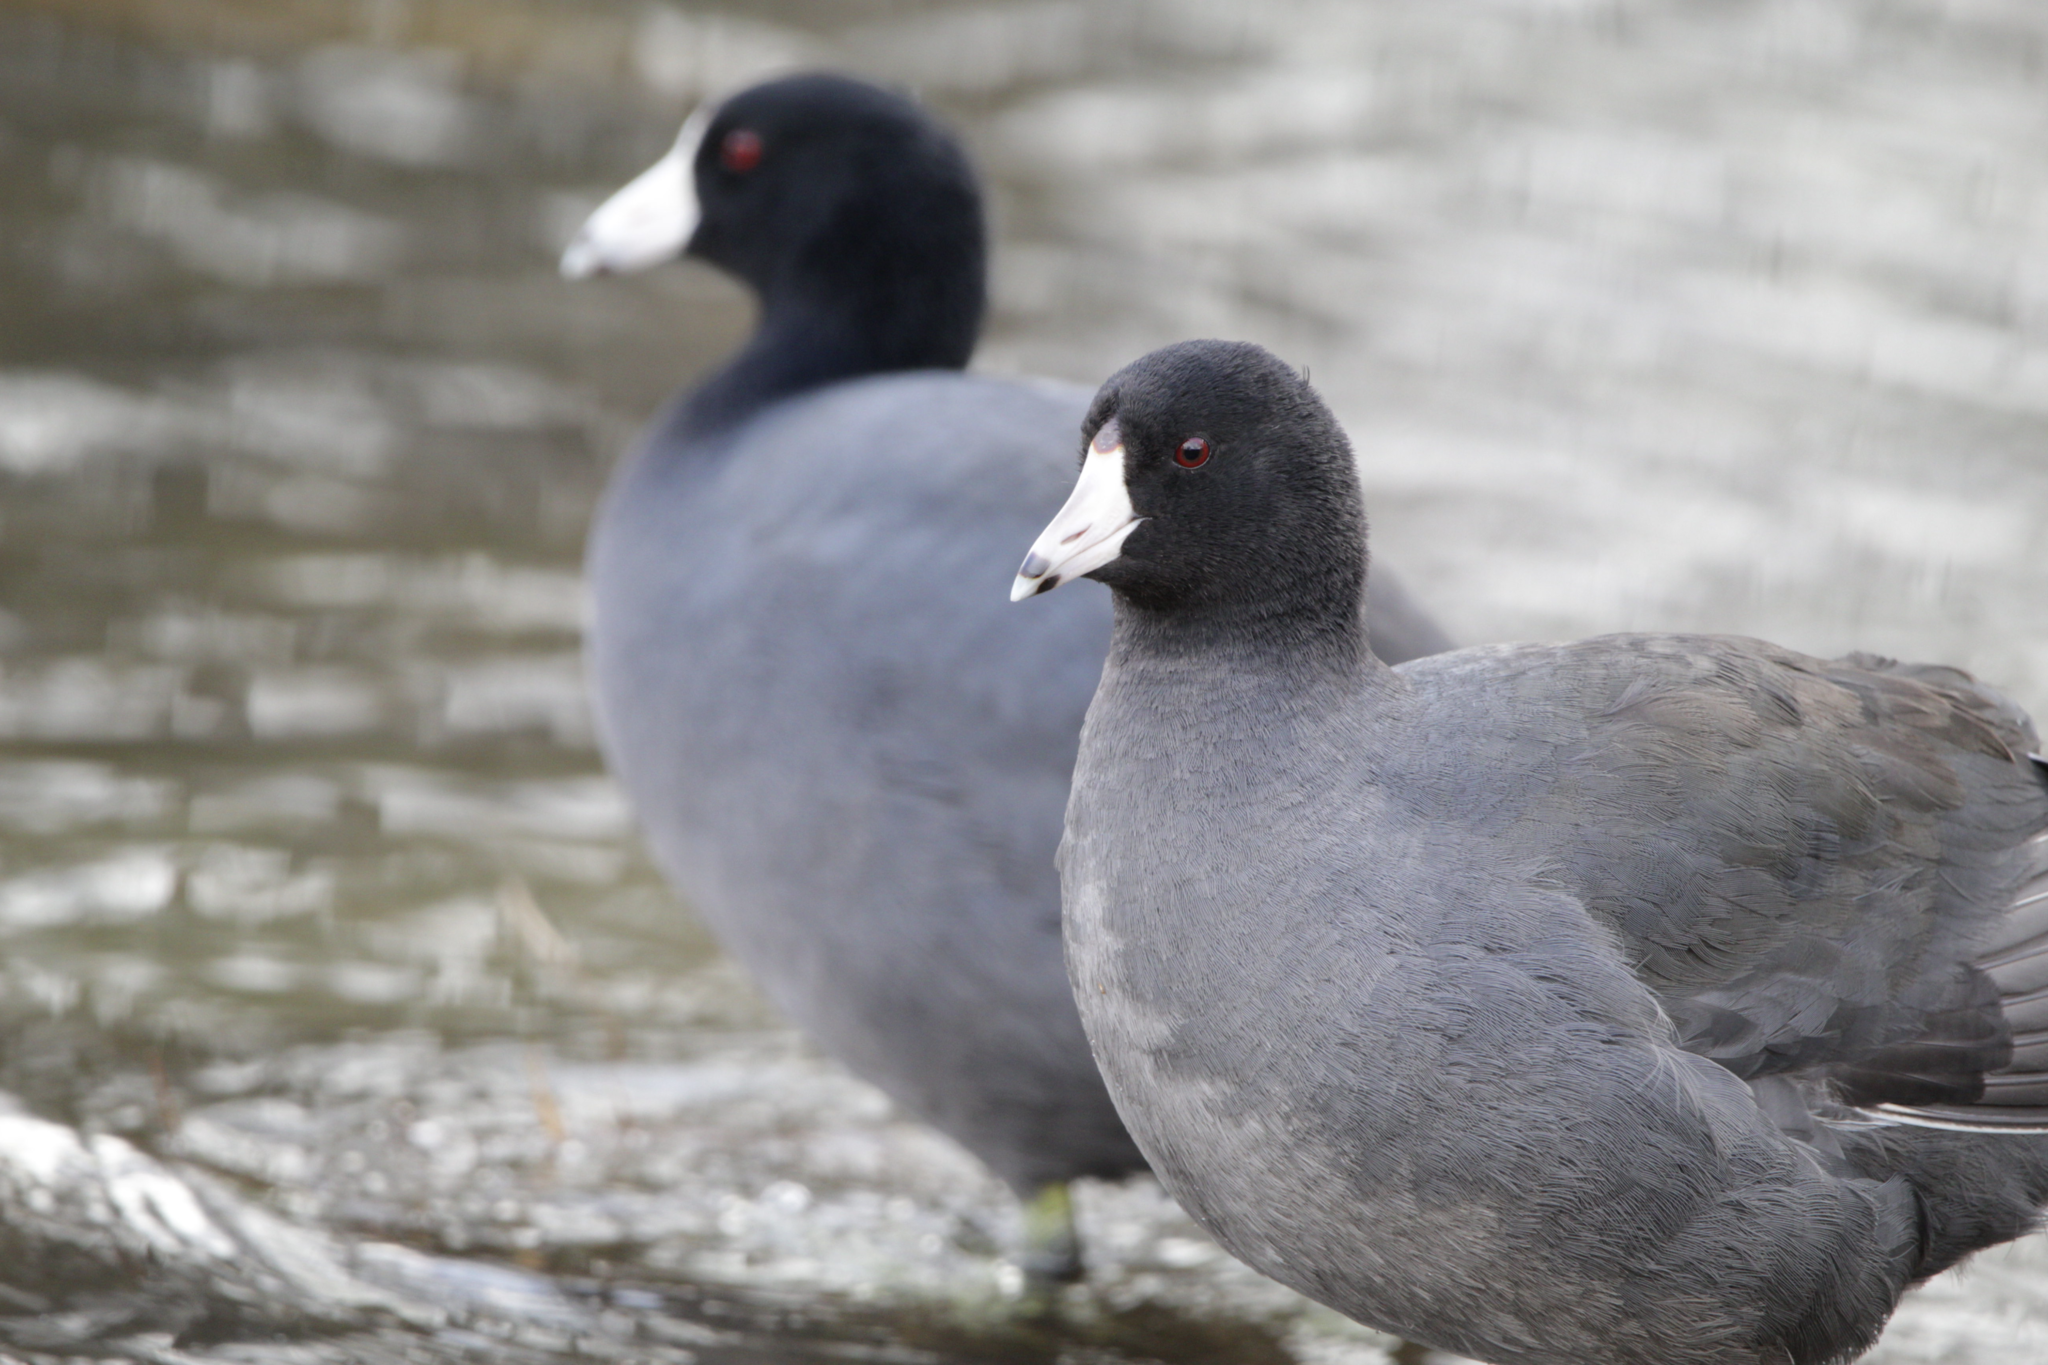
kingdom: Animalia
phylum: Chordata
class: Aves
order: Gruiformes
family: Rallidae
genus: Fulica
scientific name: Fulica americana
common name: American coot
